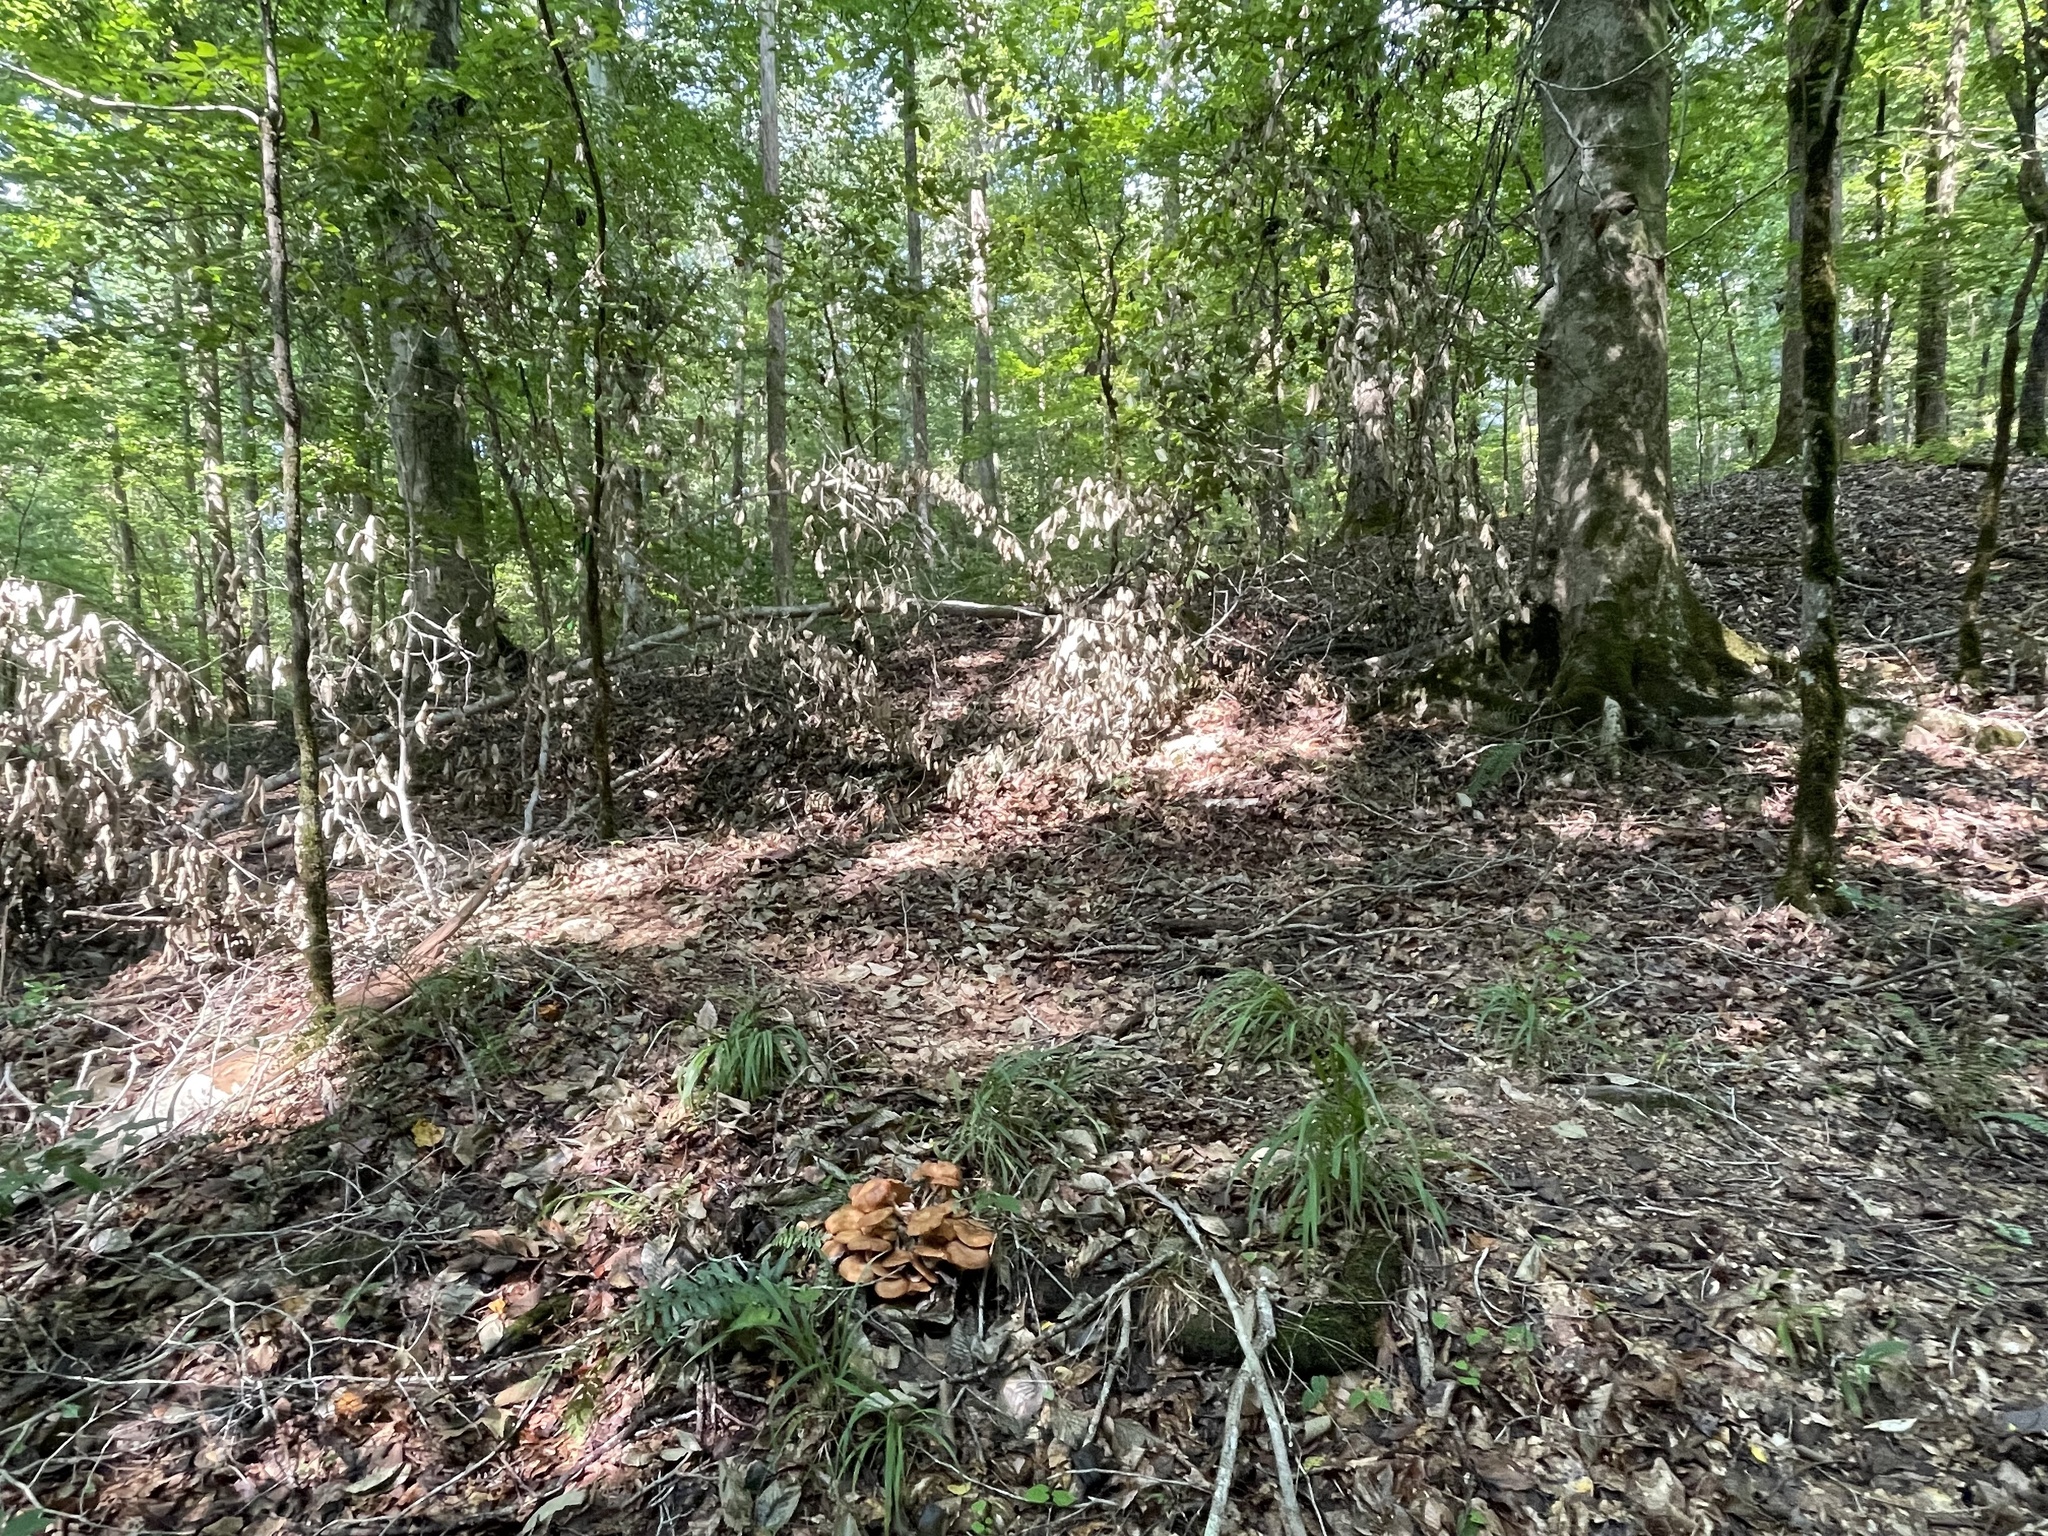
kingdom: Fungi
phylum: Basidiomycota
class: Agaricomycetes
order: Agaricales
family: Physalacriaceae
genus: Desarmillaria
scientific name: Desarmillaria caespitosa
